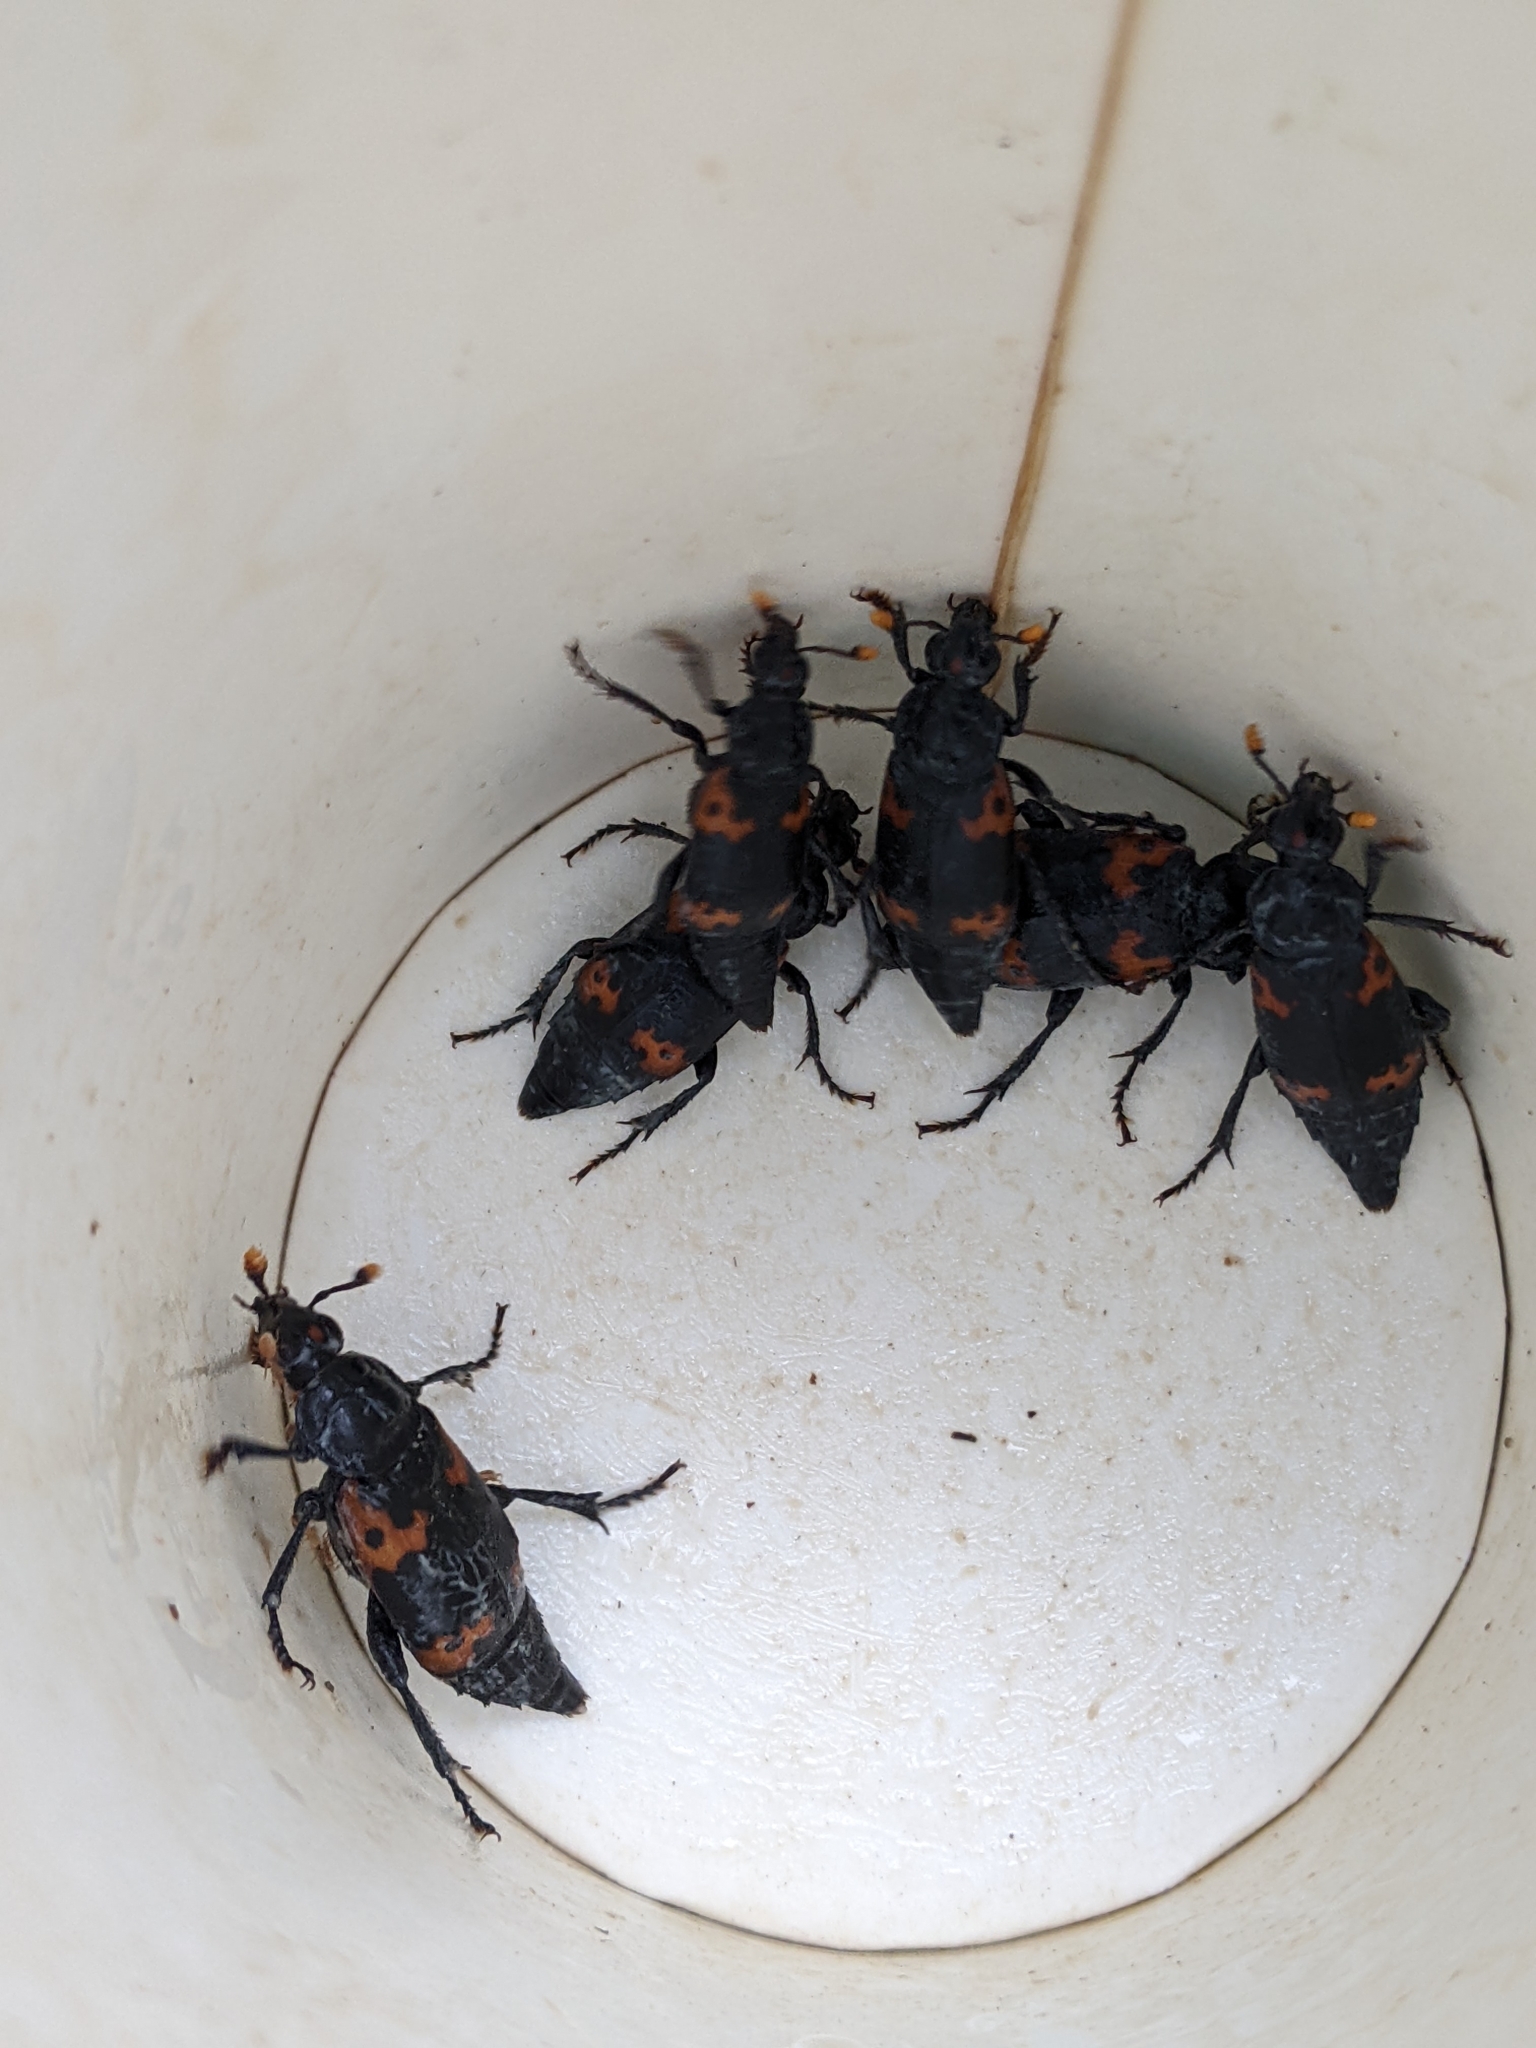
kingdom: Animalia
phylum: Arthropoda
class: Insecta
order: Coleoptera
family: Staphylinidae
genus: Nicrophorus
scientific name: Nicrophorus nepalensis
